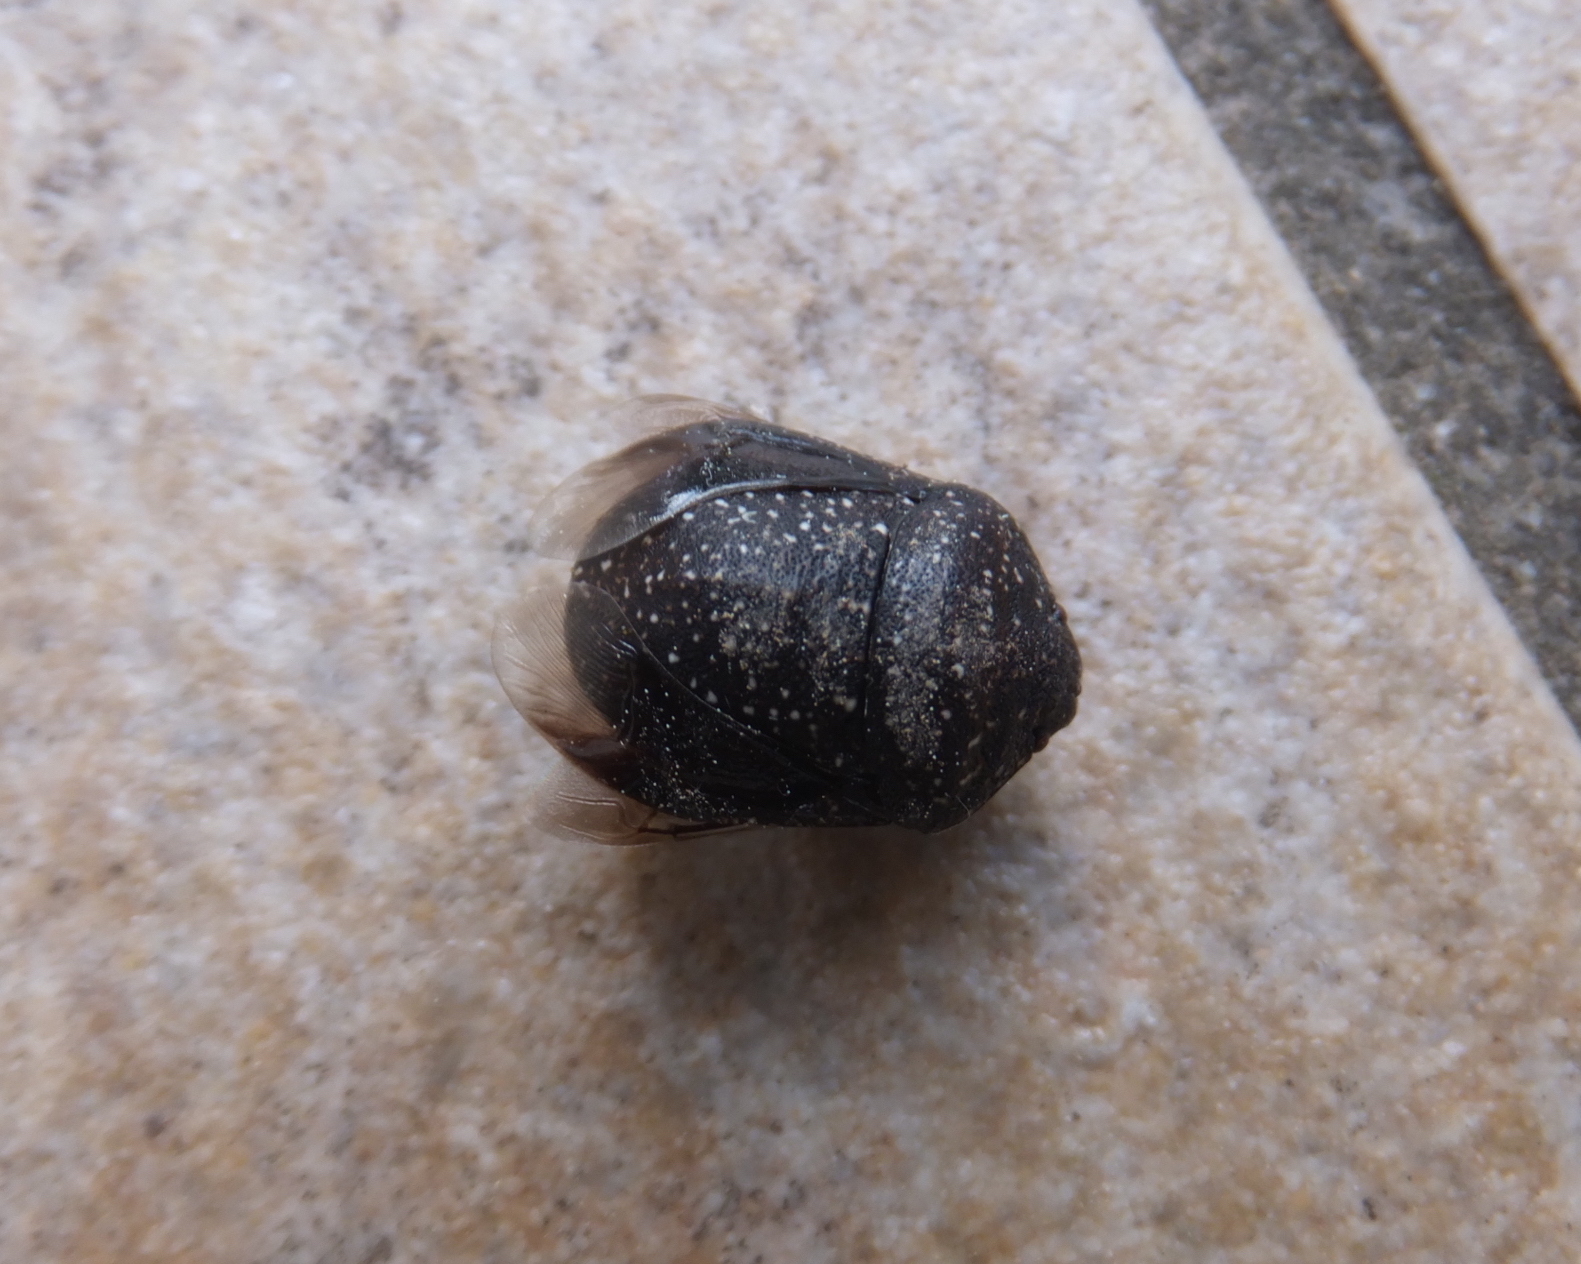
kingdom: Animalia
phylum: Arthropoda
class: Insecta
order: Hemiptera
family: Scutelleridae
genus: Psacasta
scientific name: Psacasta exanthematica
